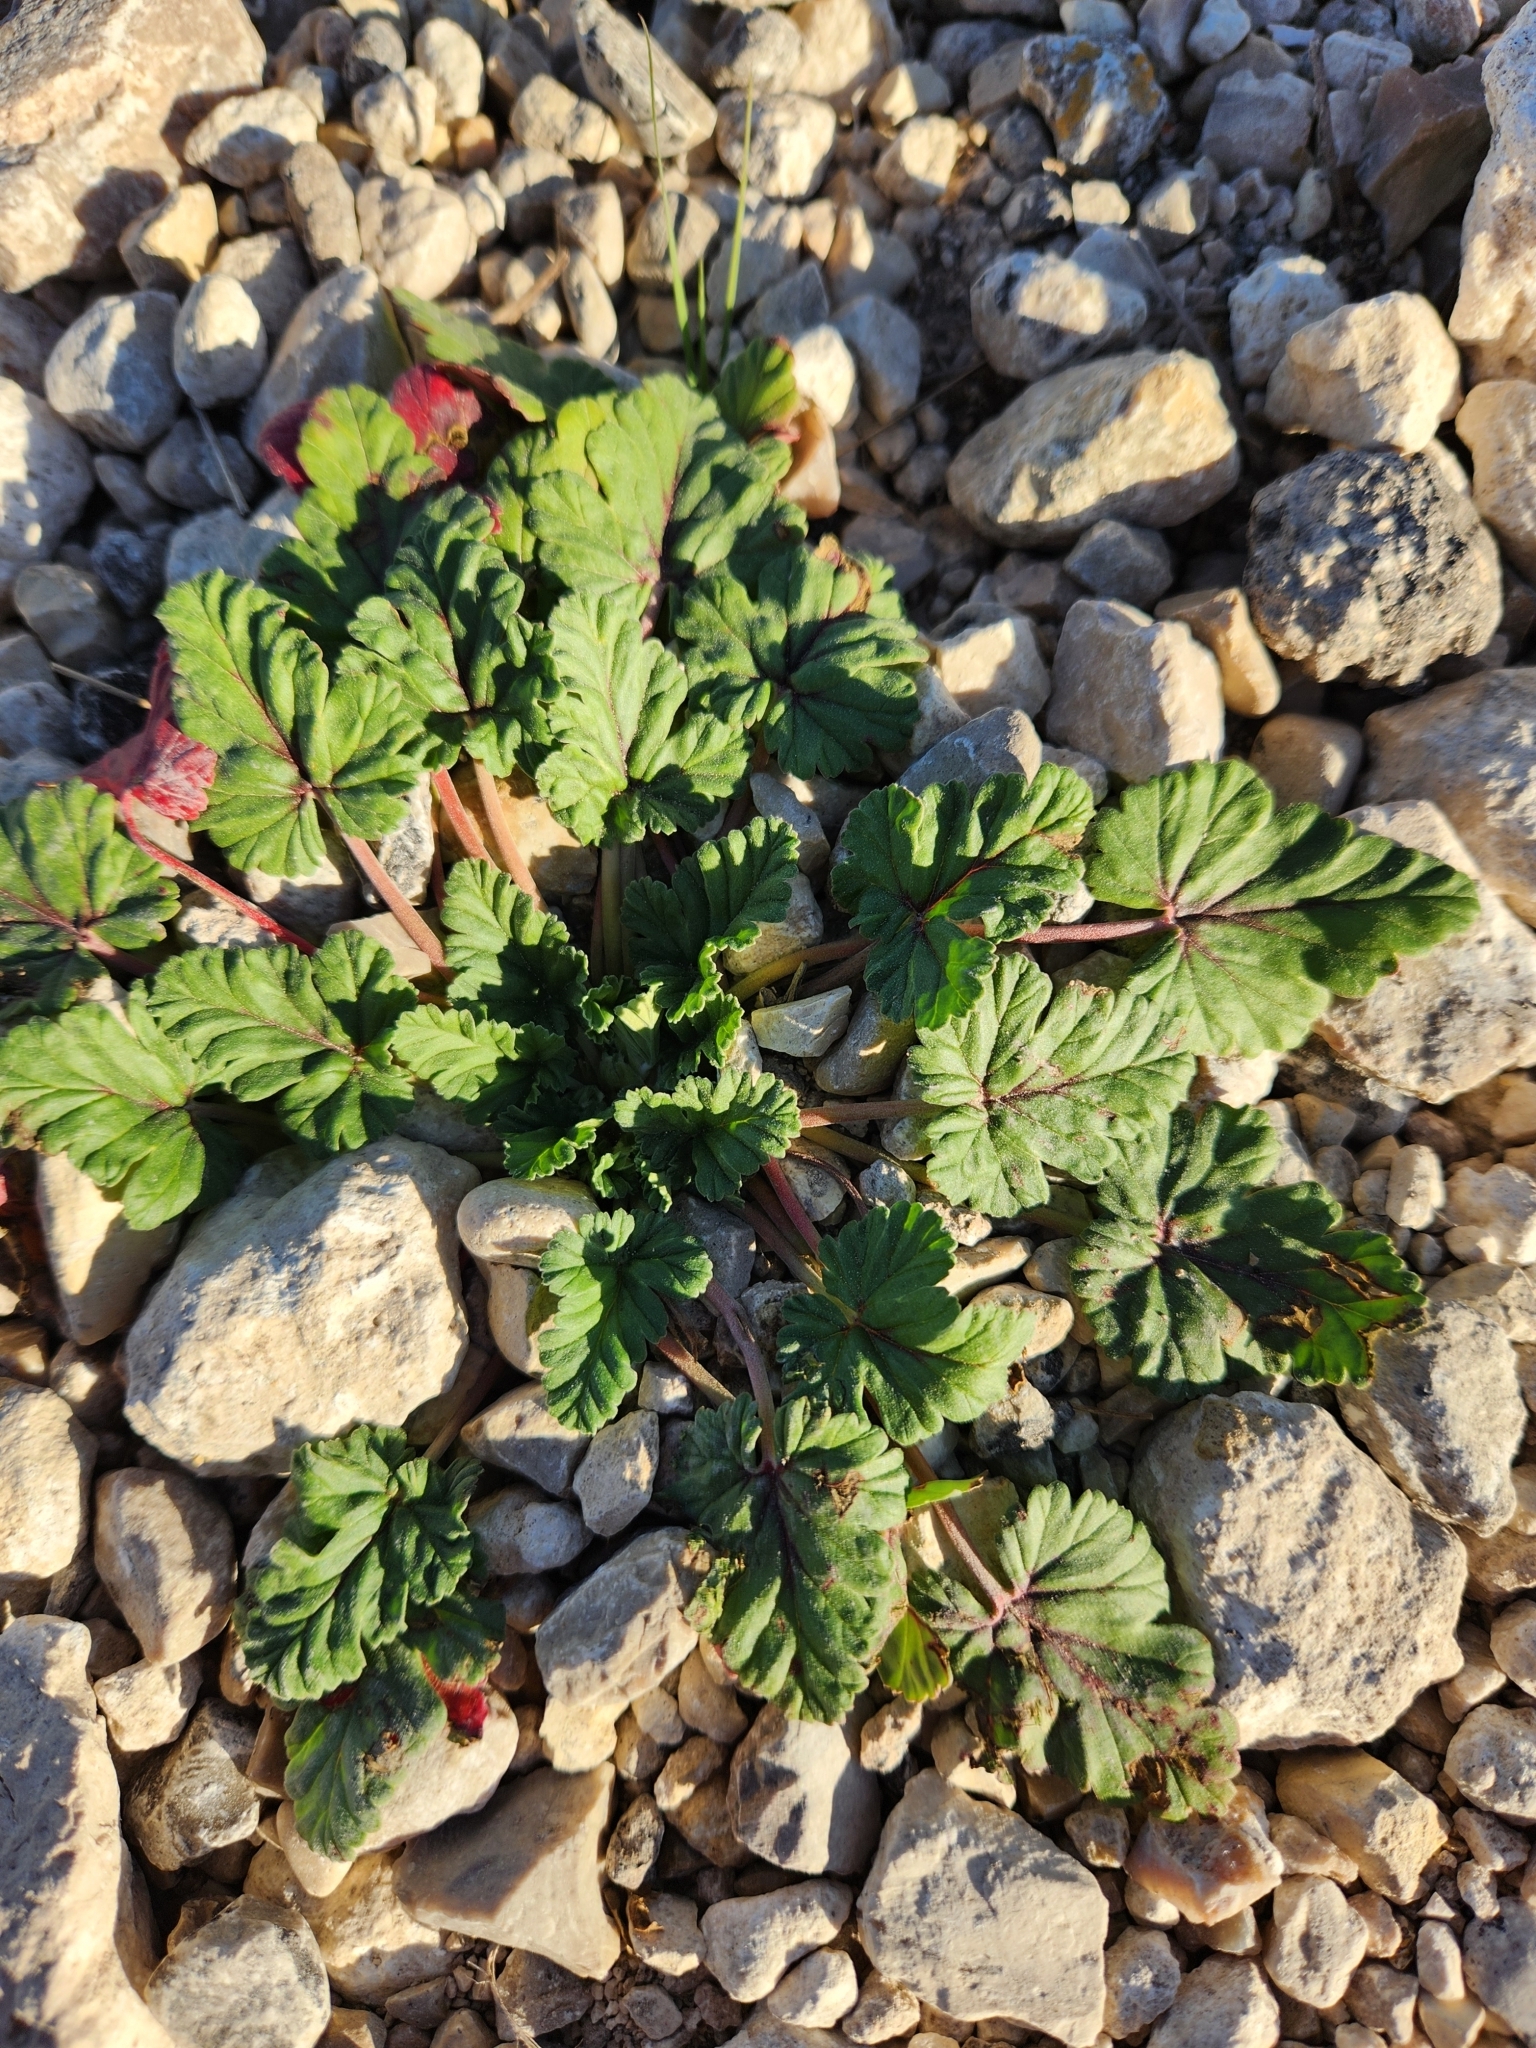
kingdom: Plantae
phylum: Tracheophyta
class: Magnoliopsida
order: Geraniales
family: Geraniaceae
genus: Erodium
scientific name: Erodium texanum
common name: Texas stork's-bill
